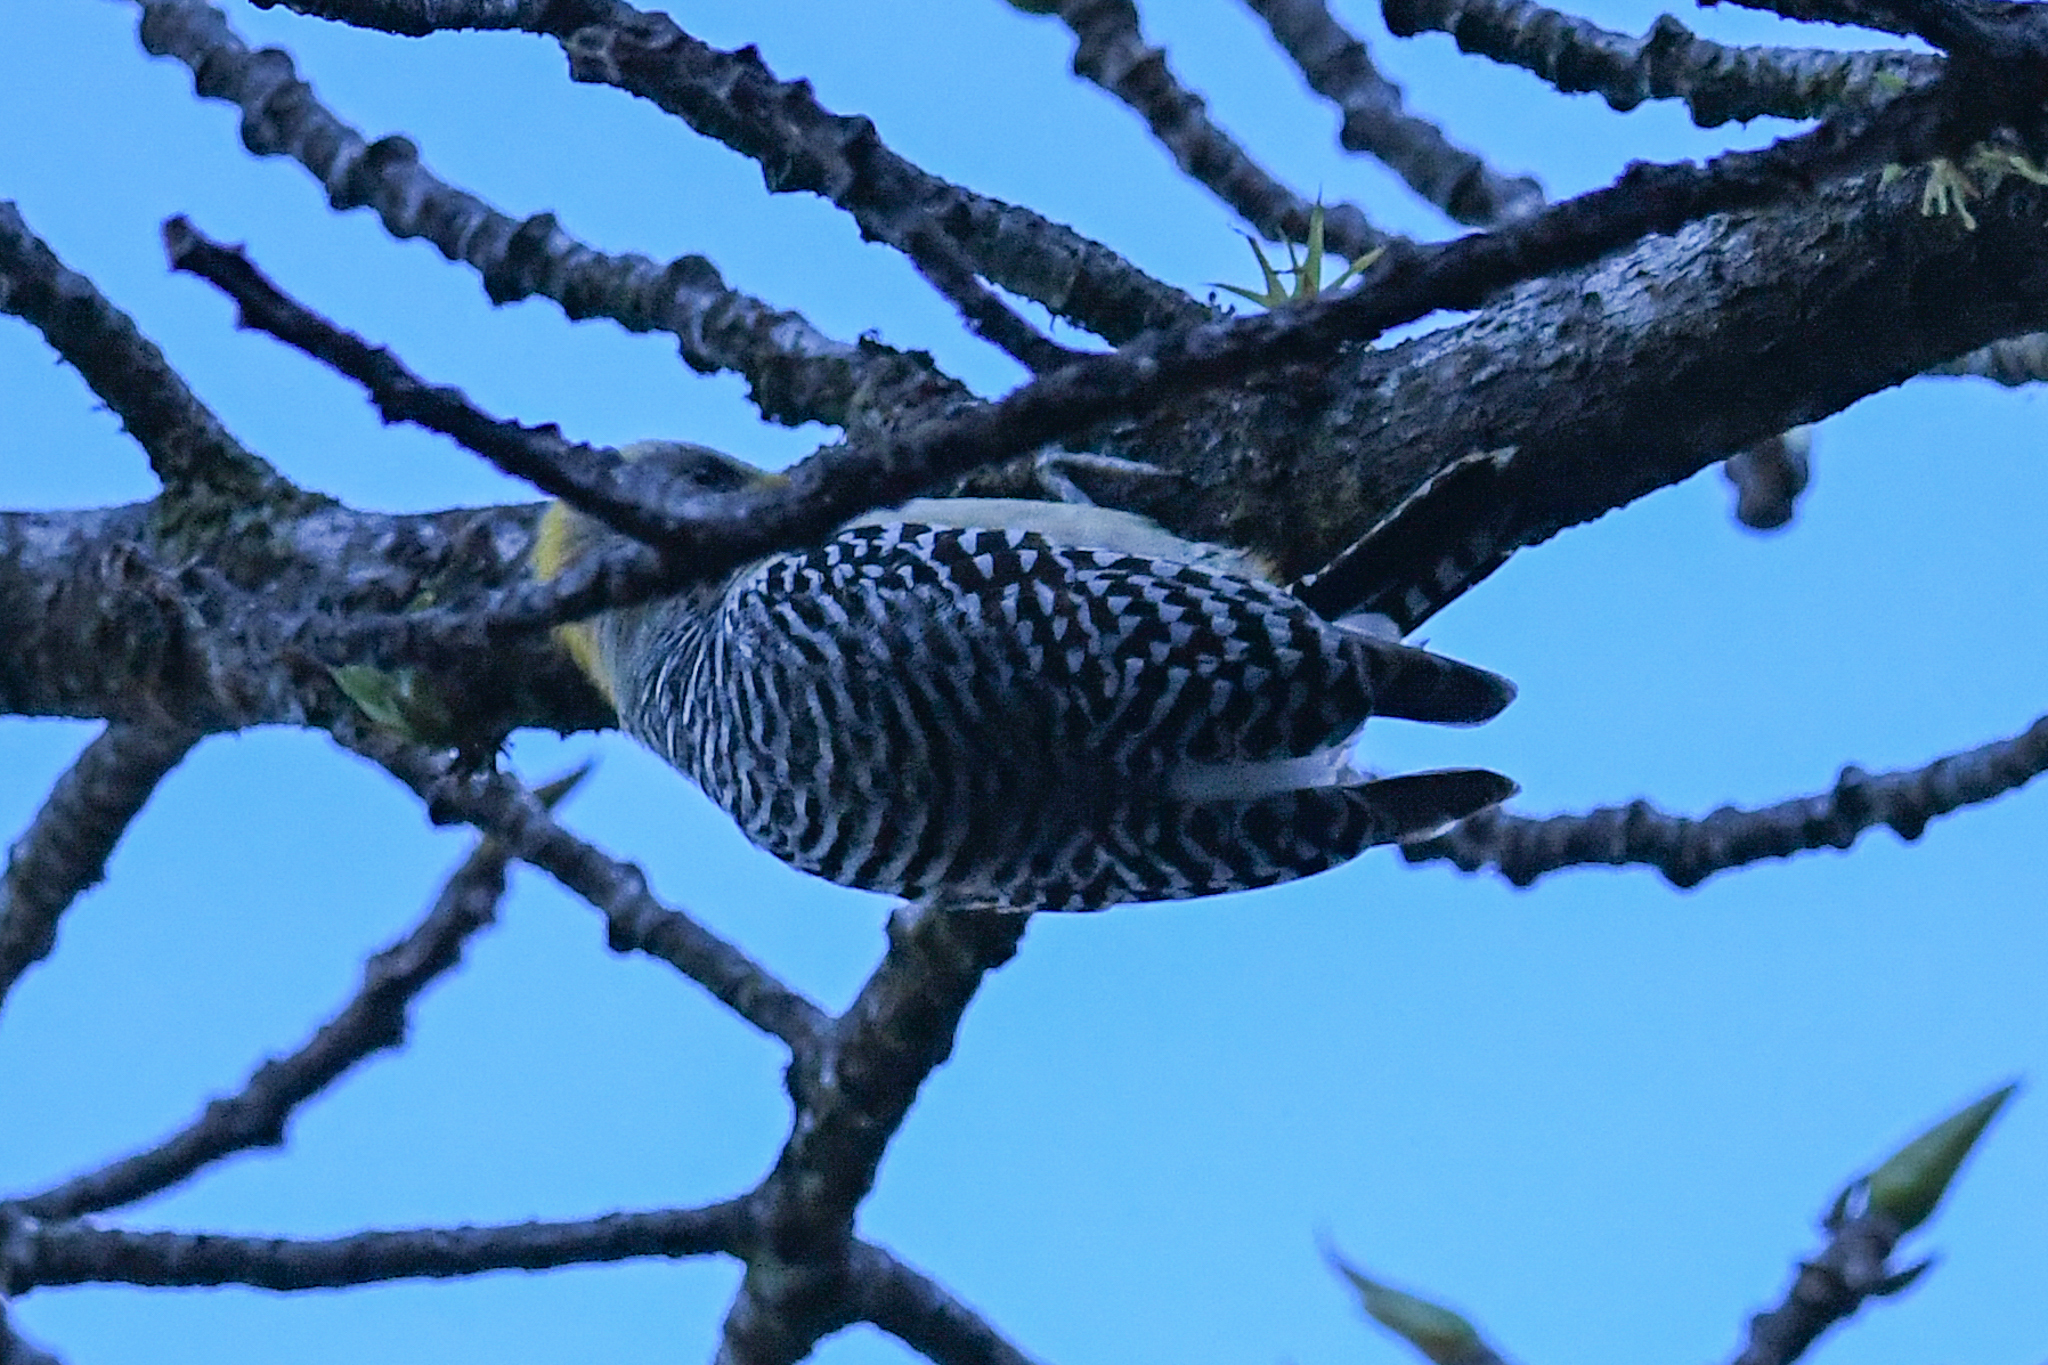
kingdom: Animalia
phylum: Chordata
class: Aves
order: Piciformes
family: Picidae
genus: Melanerpes
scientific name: Melanerpes hoffmannii
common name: Hoffmann's woodpecker
